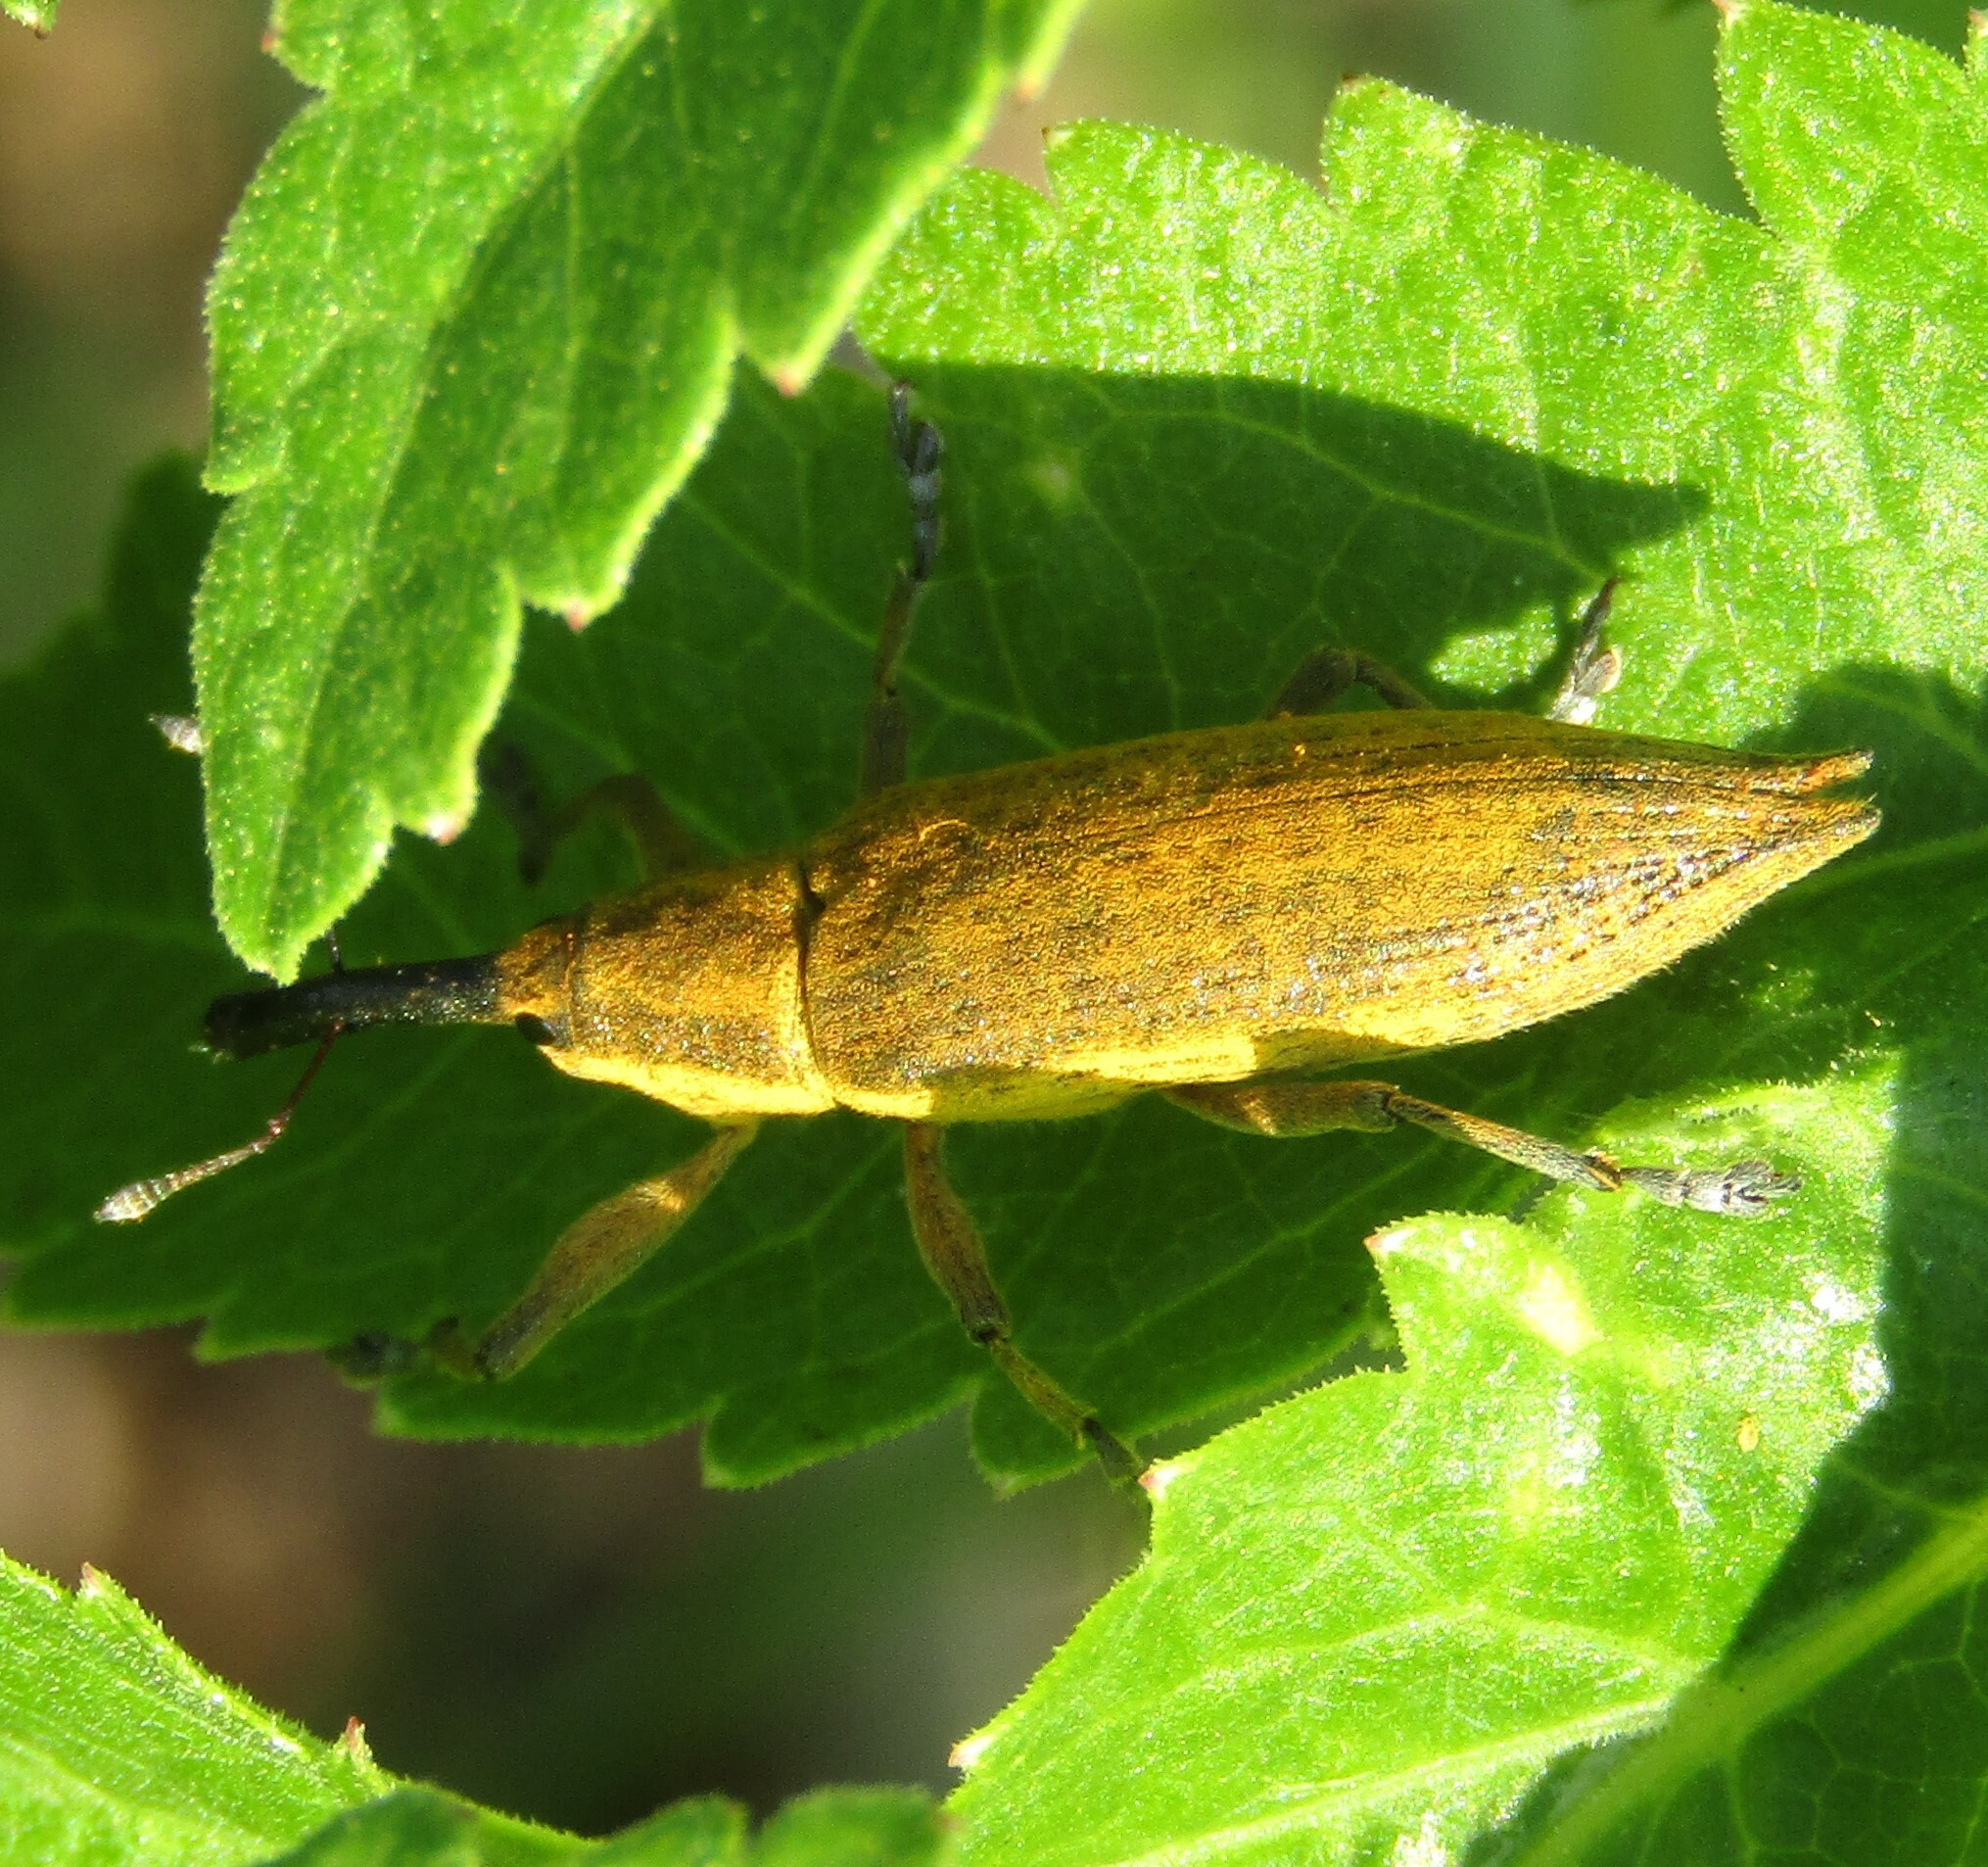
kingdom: Animalia
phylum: Arthropoda
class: Insecta
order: Coleoptera
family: Curculionidae
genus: Lixus
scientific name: Lixus iridis
